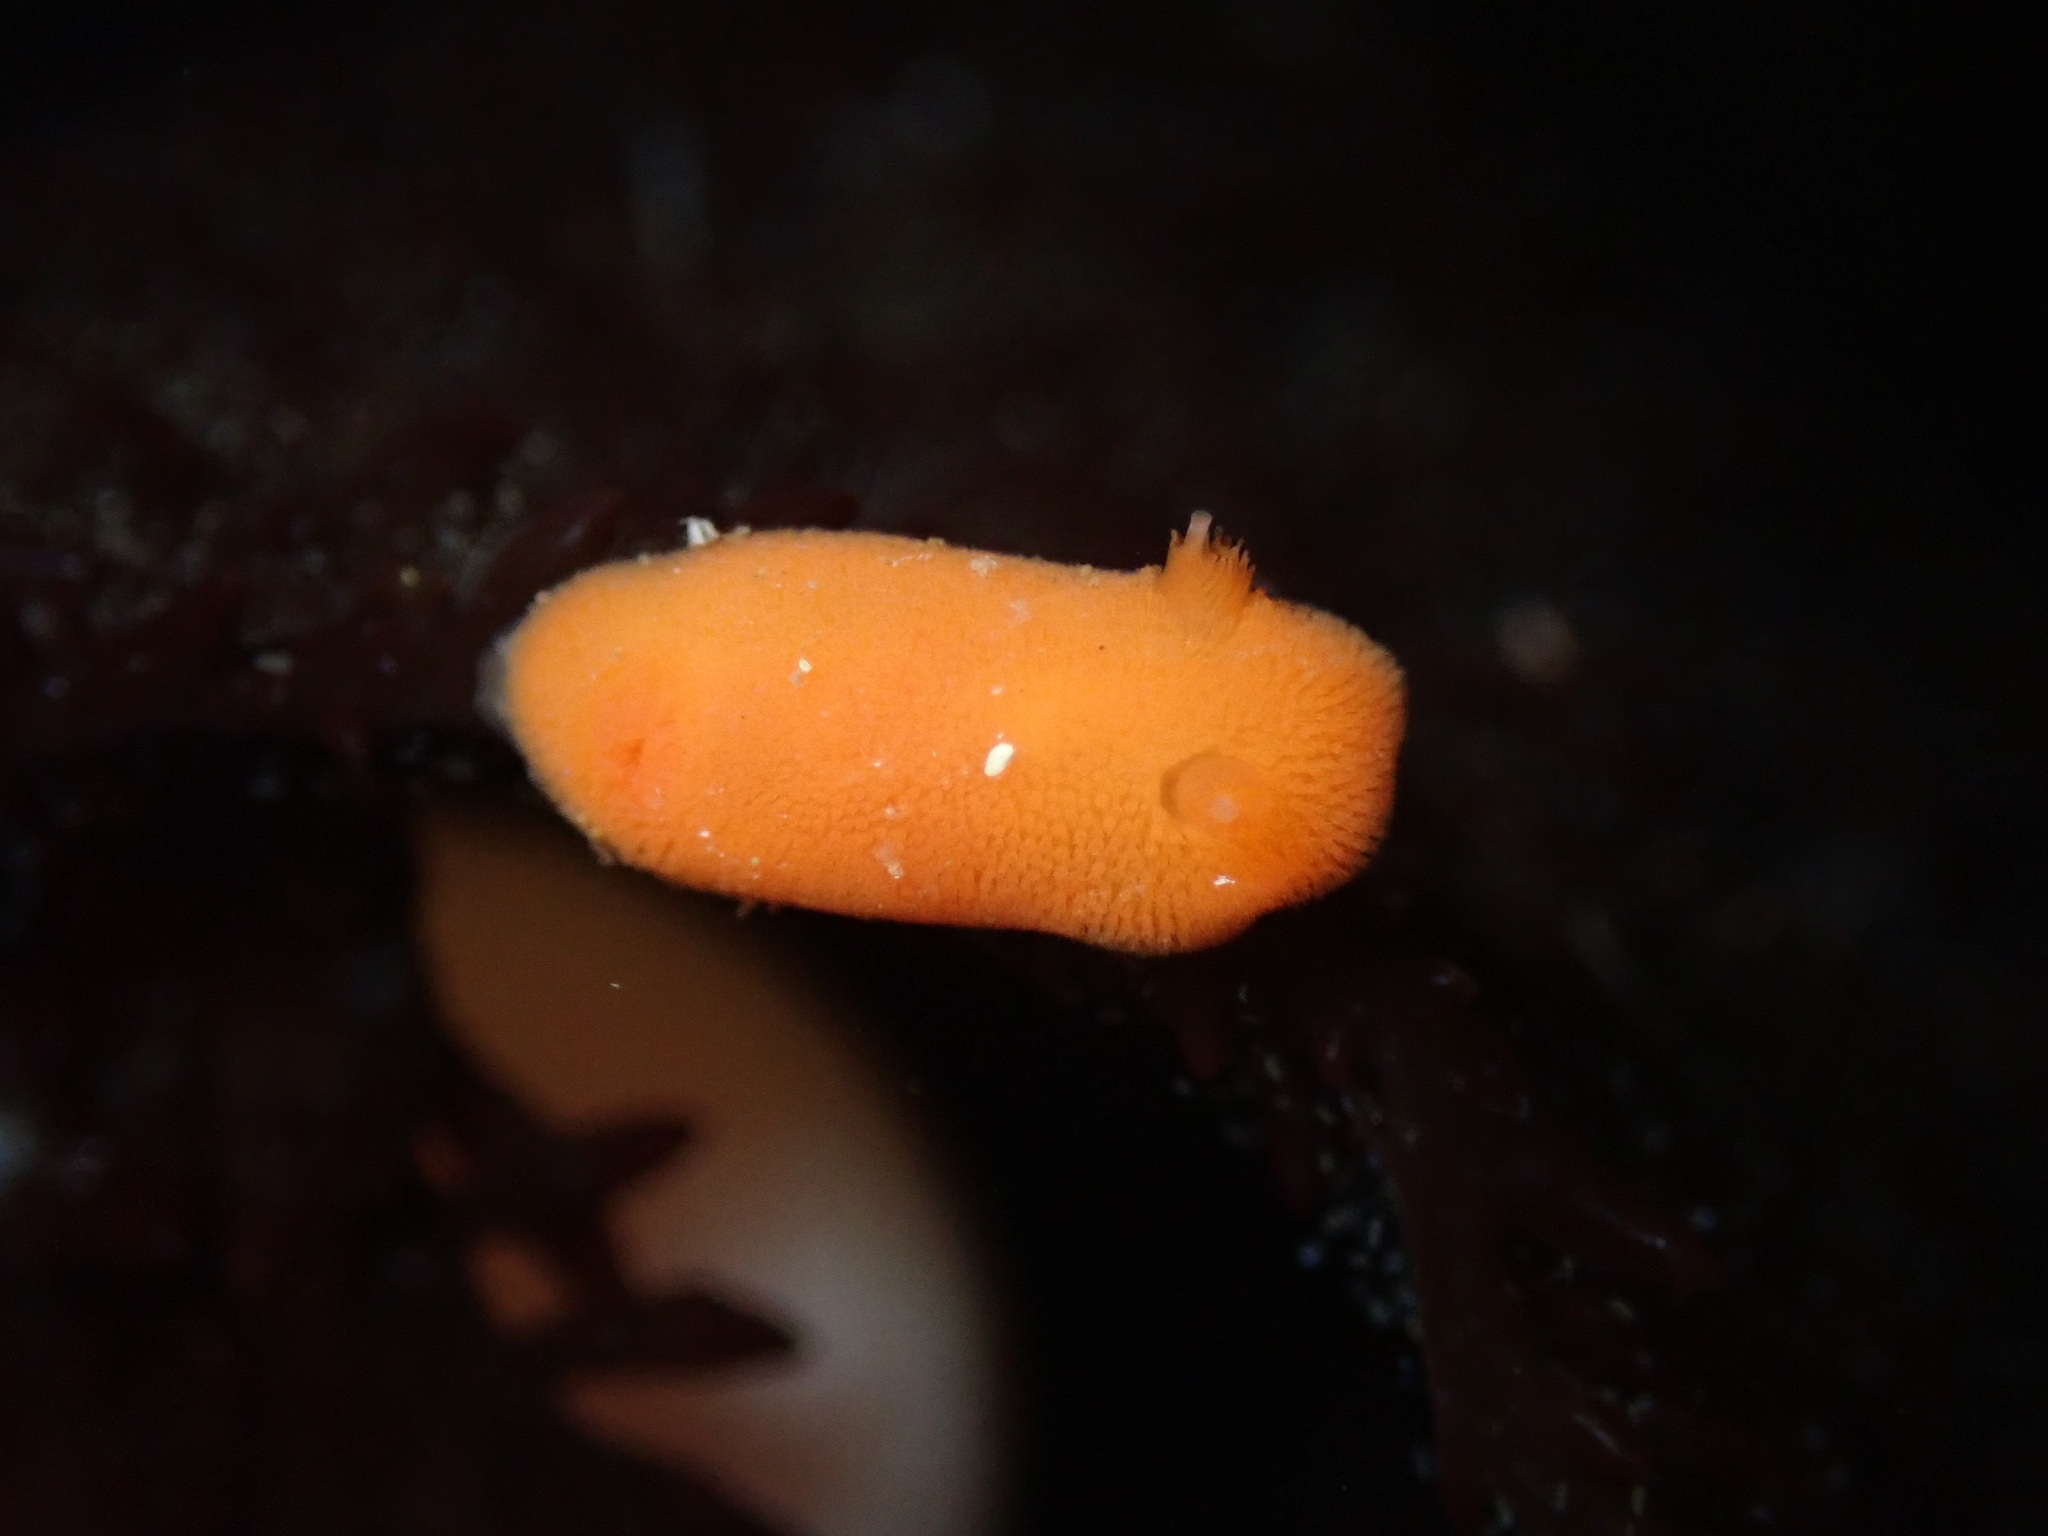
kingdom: Animalia
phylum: Mollusca
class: Gastropoda
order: Nudibranchia
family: Discodorididae
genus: Rostanga
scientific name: Rostanga pulchra
